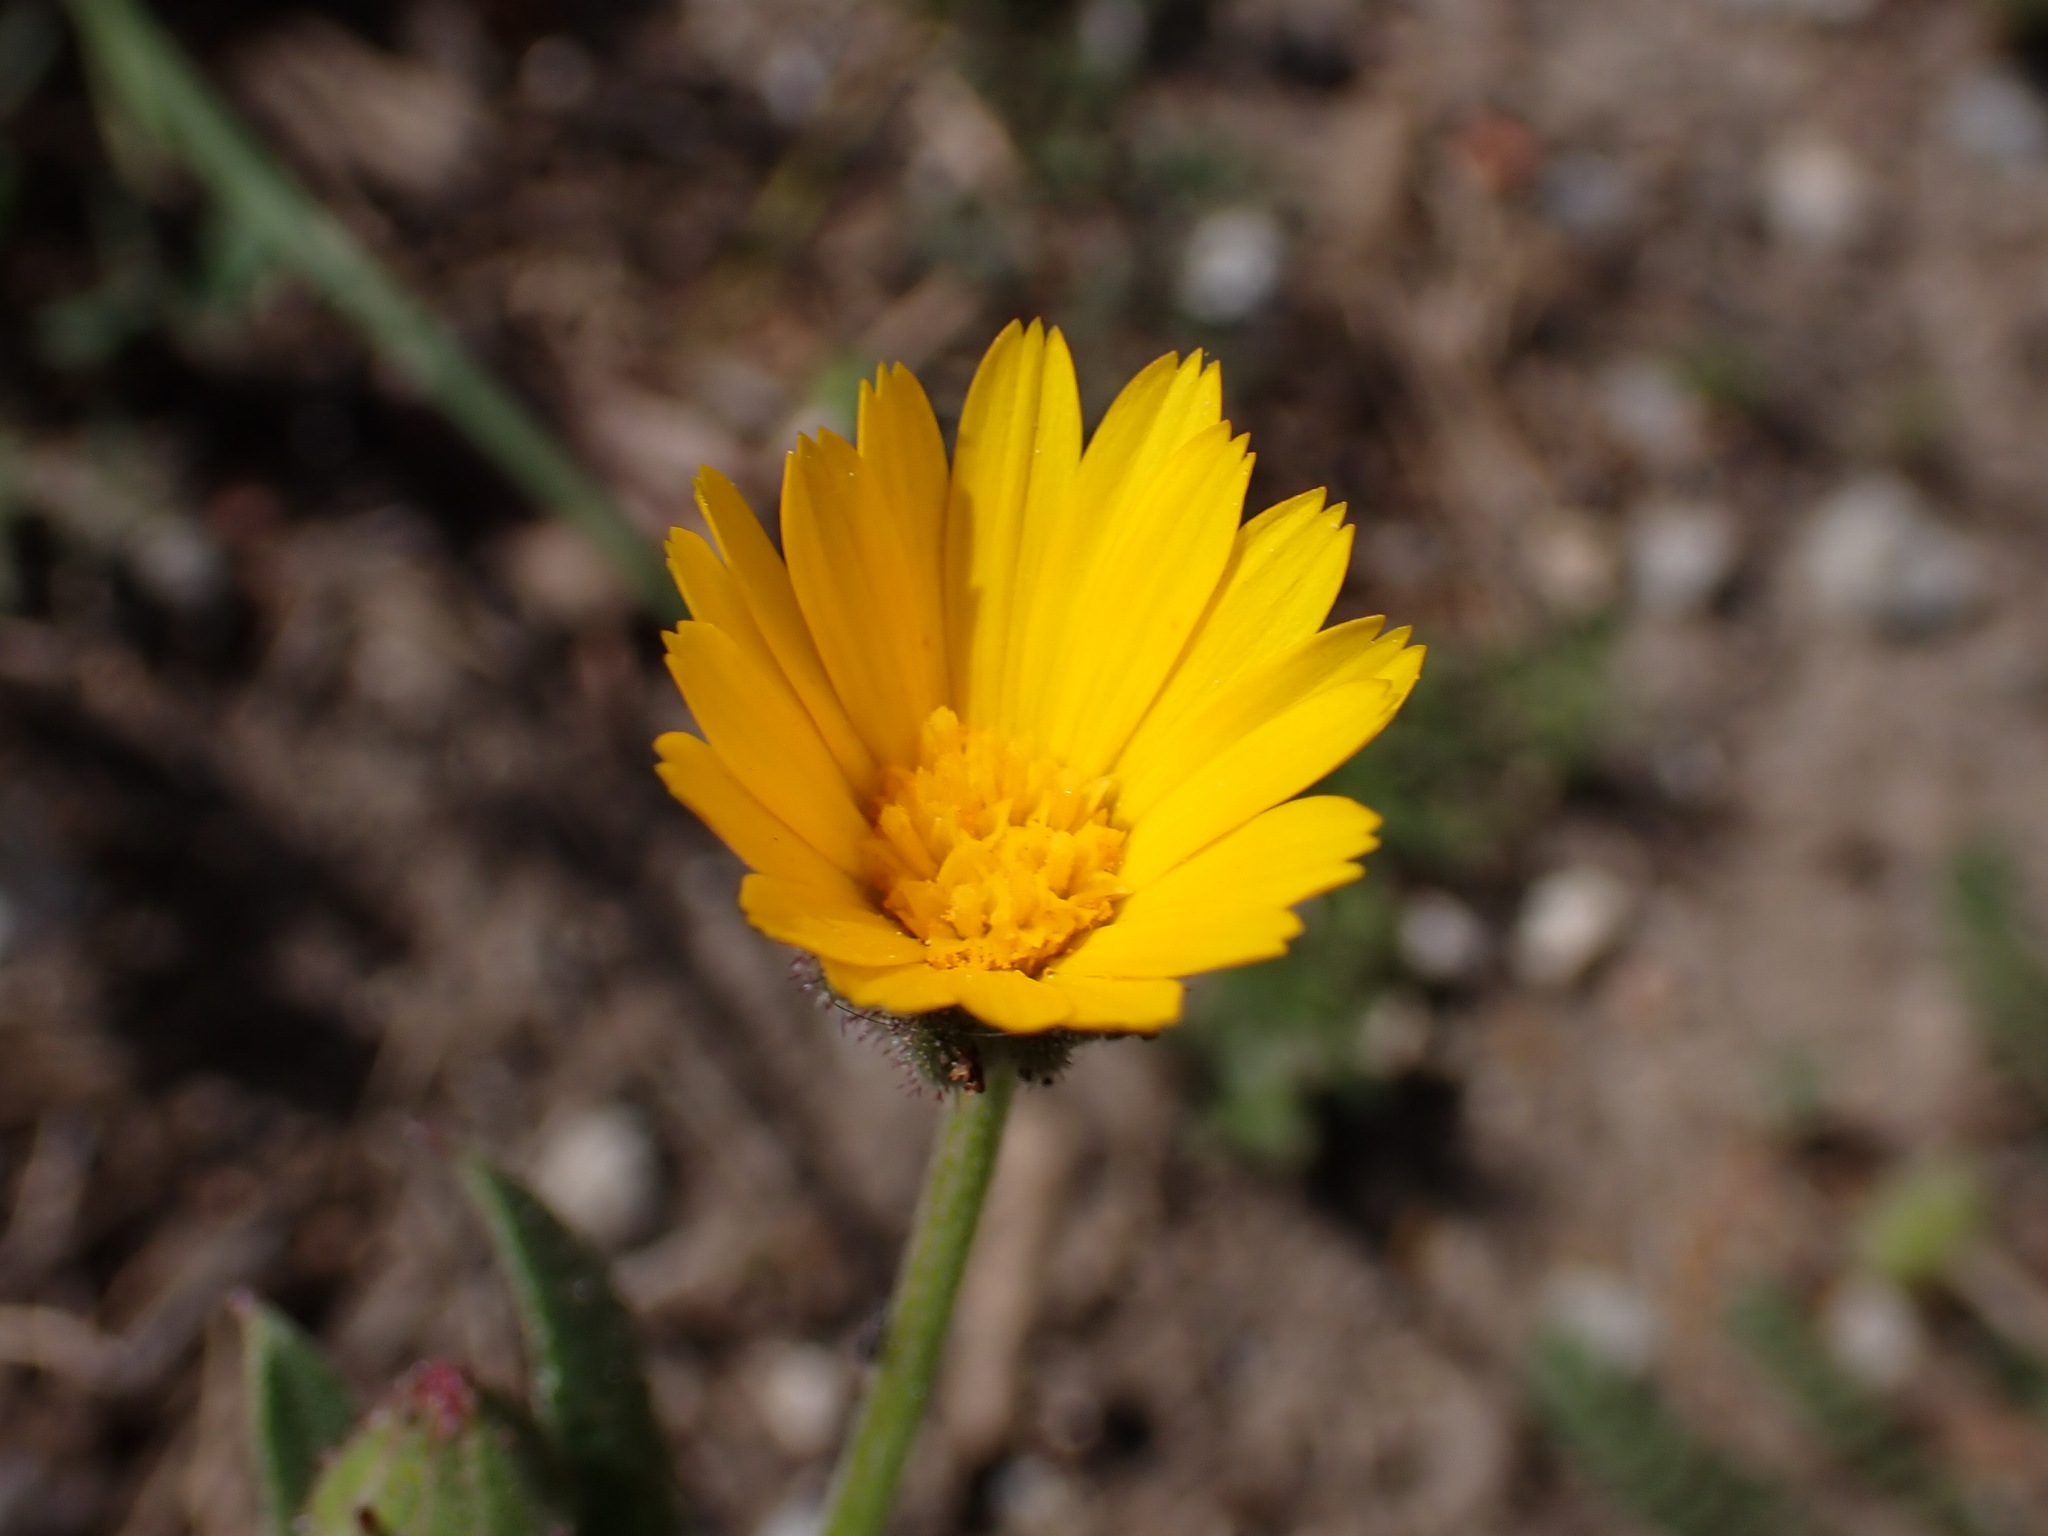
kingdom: Plantae
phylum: Tracheophyta
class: Magnoliopsida
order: Asterales
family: Asteraceae
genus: Calendula
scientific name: Calendula arvensis
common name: Field marigold
